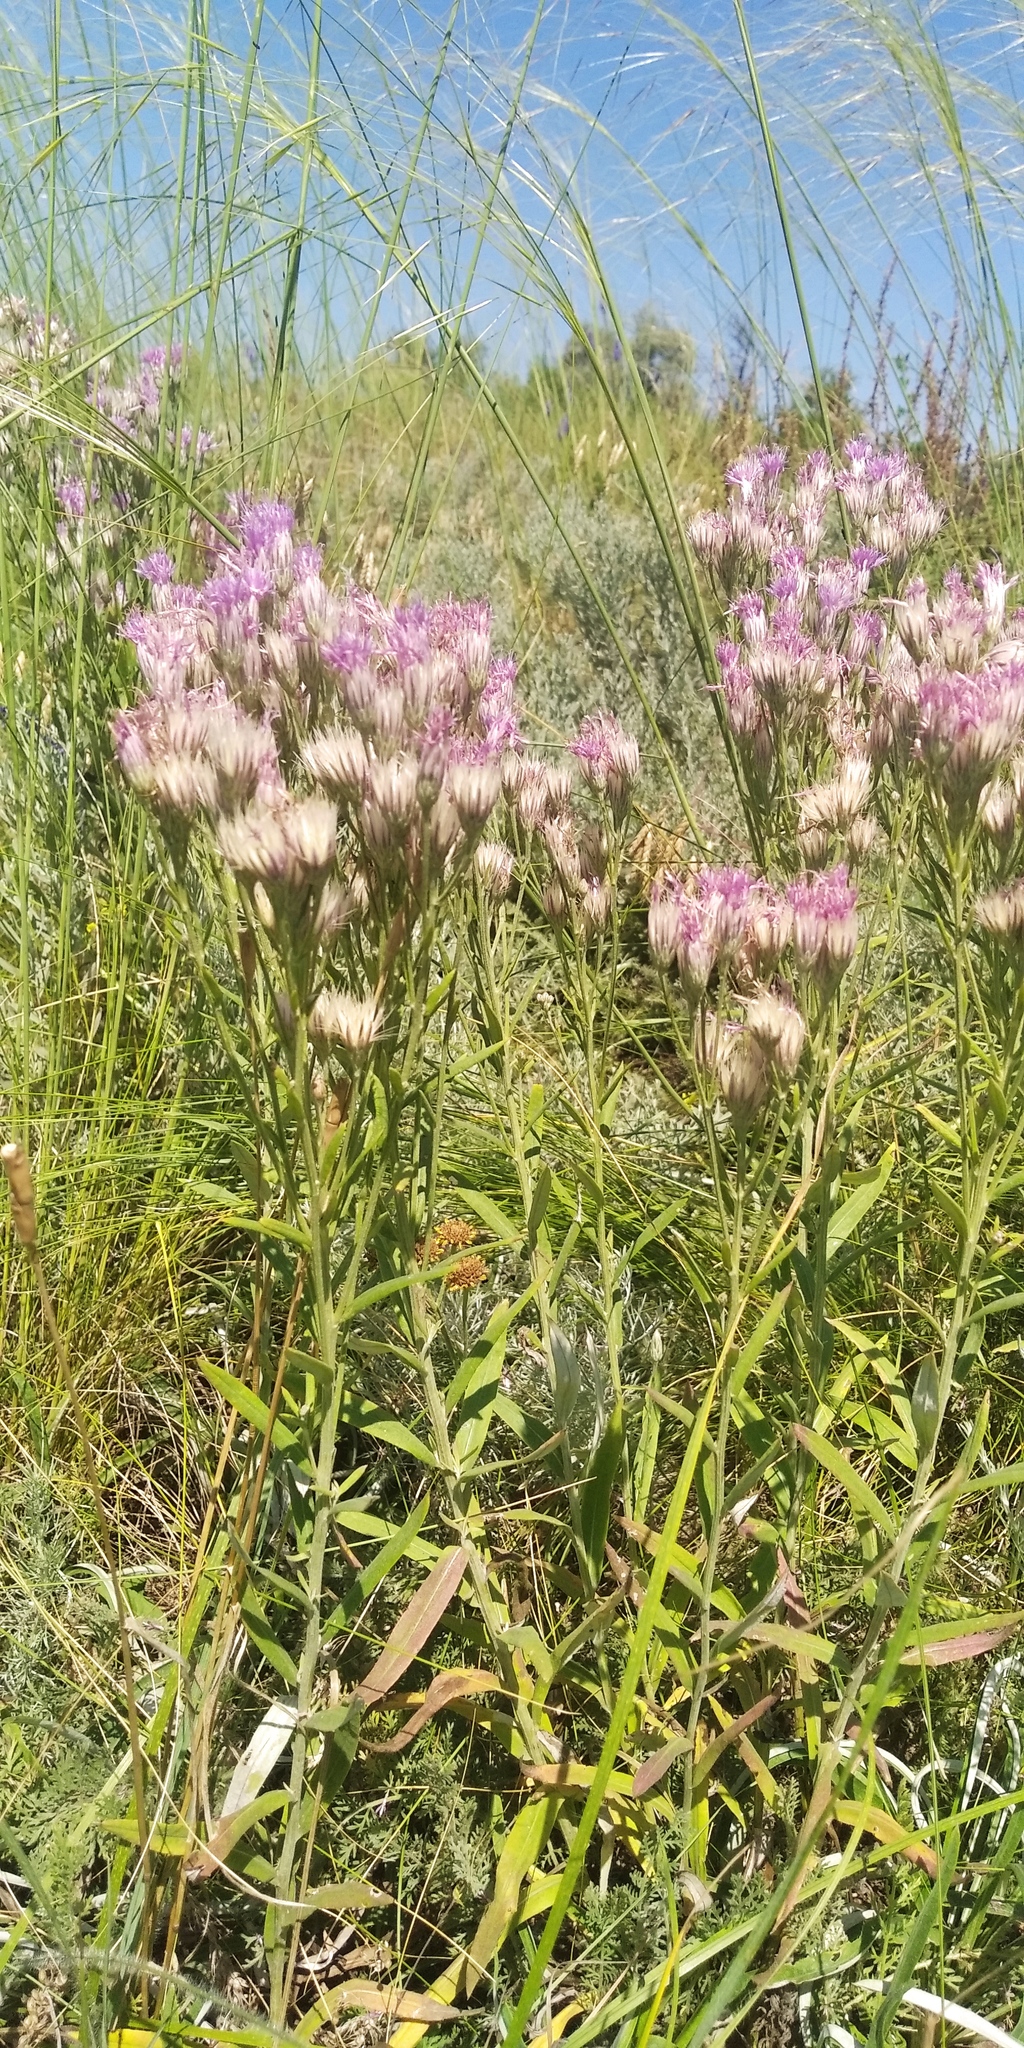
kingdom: Plantae
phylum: Tracheophyta
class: Magnoliopsida
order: Asterales
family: Asteraceae
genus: Jurinea
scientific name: Jurinea multiflora
